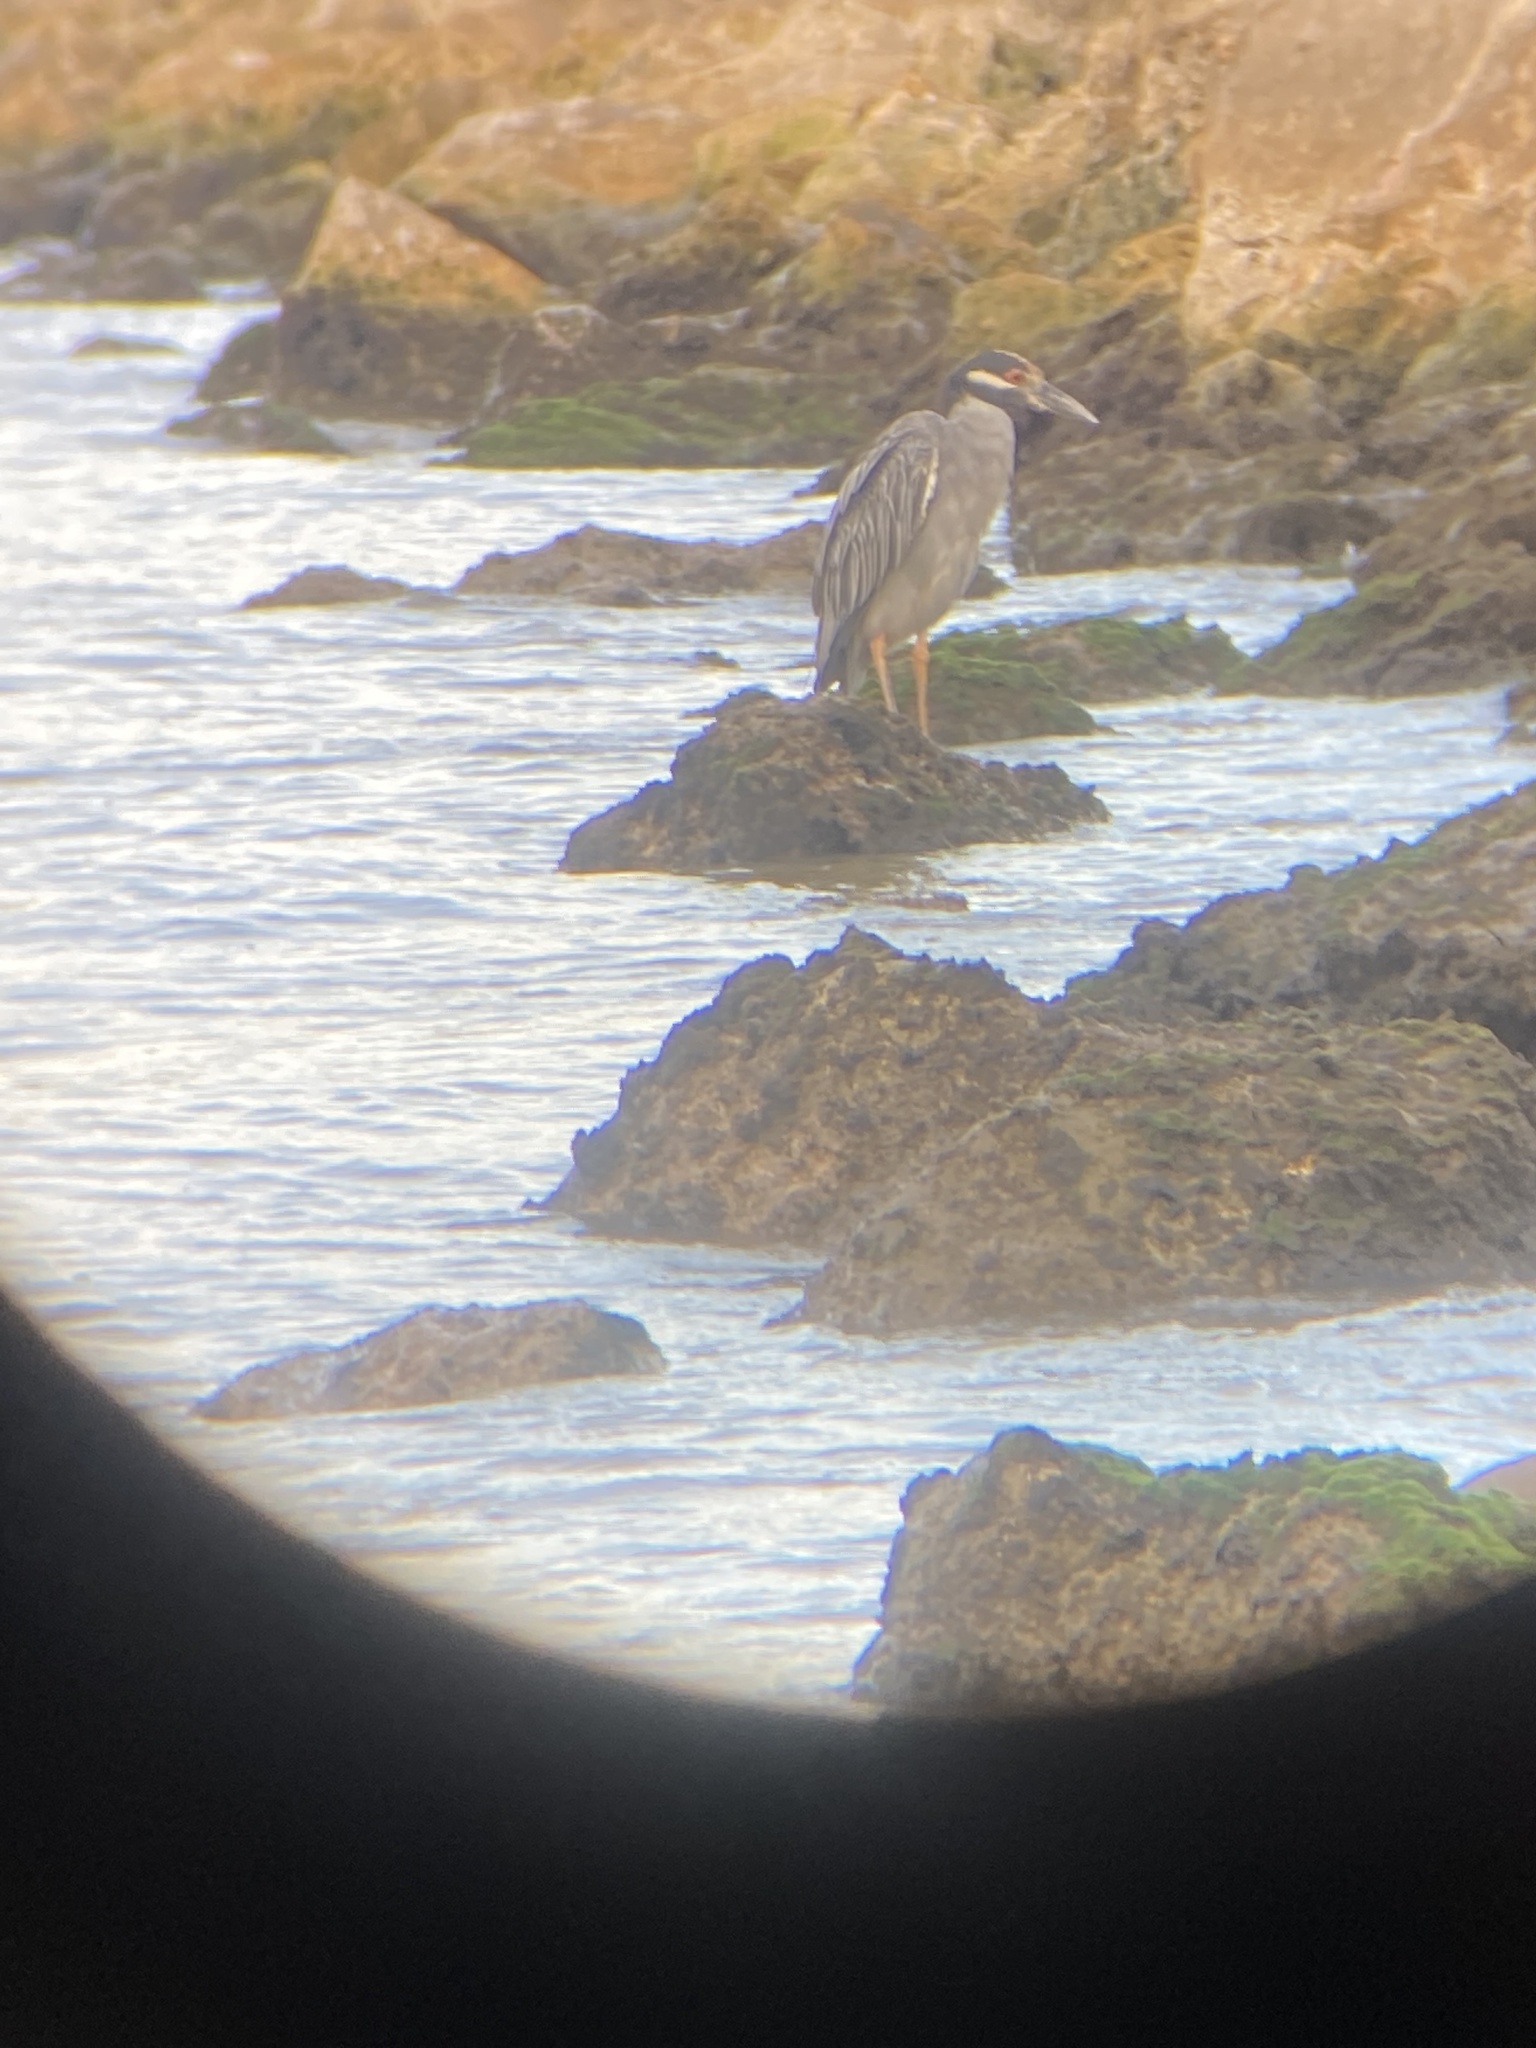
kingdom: Animalia
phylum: Chordata
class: Aves
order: Pelecaniformes
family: Ardeidae
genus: Nyctanassa
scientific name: Nyctanassa violacea
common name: Yellow-crowned night heron
